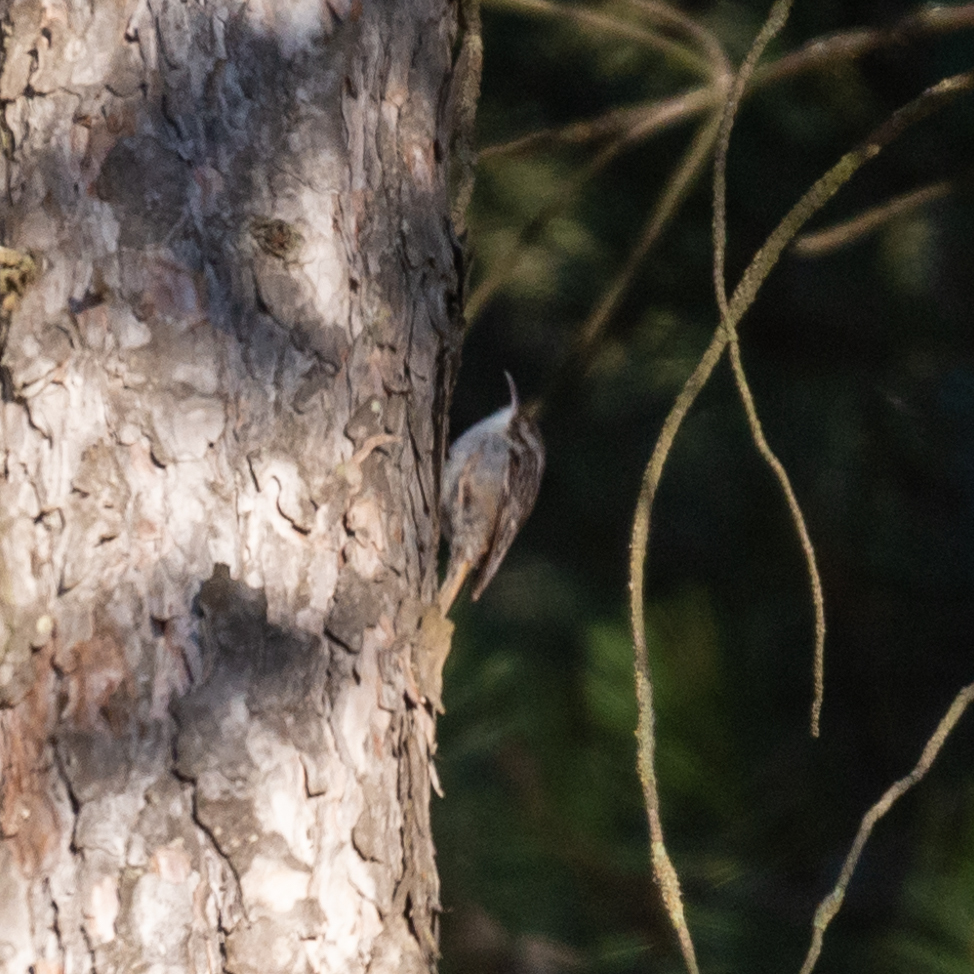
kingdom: Animalia
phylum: Chordata
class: Aves
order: Passeriformes
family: Certhiidae
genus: Certhia
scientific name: Certhia brachydactyla
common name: Short-toed treecreeper
